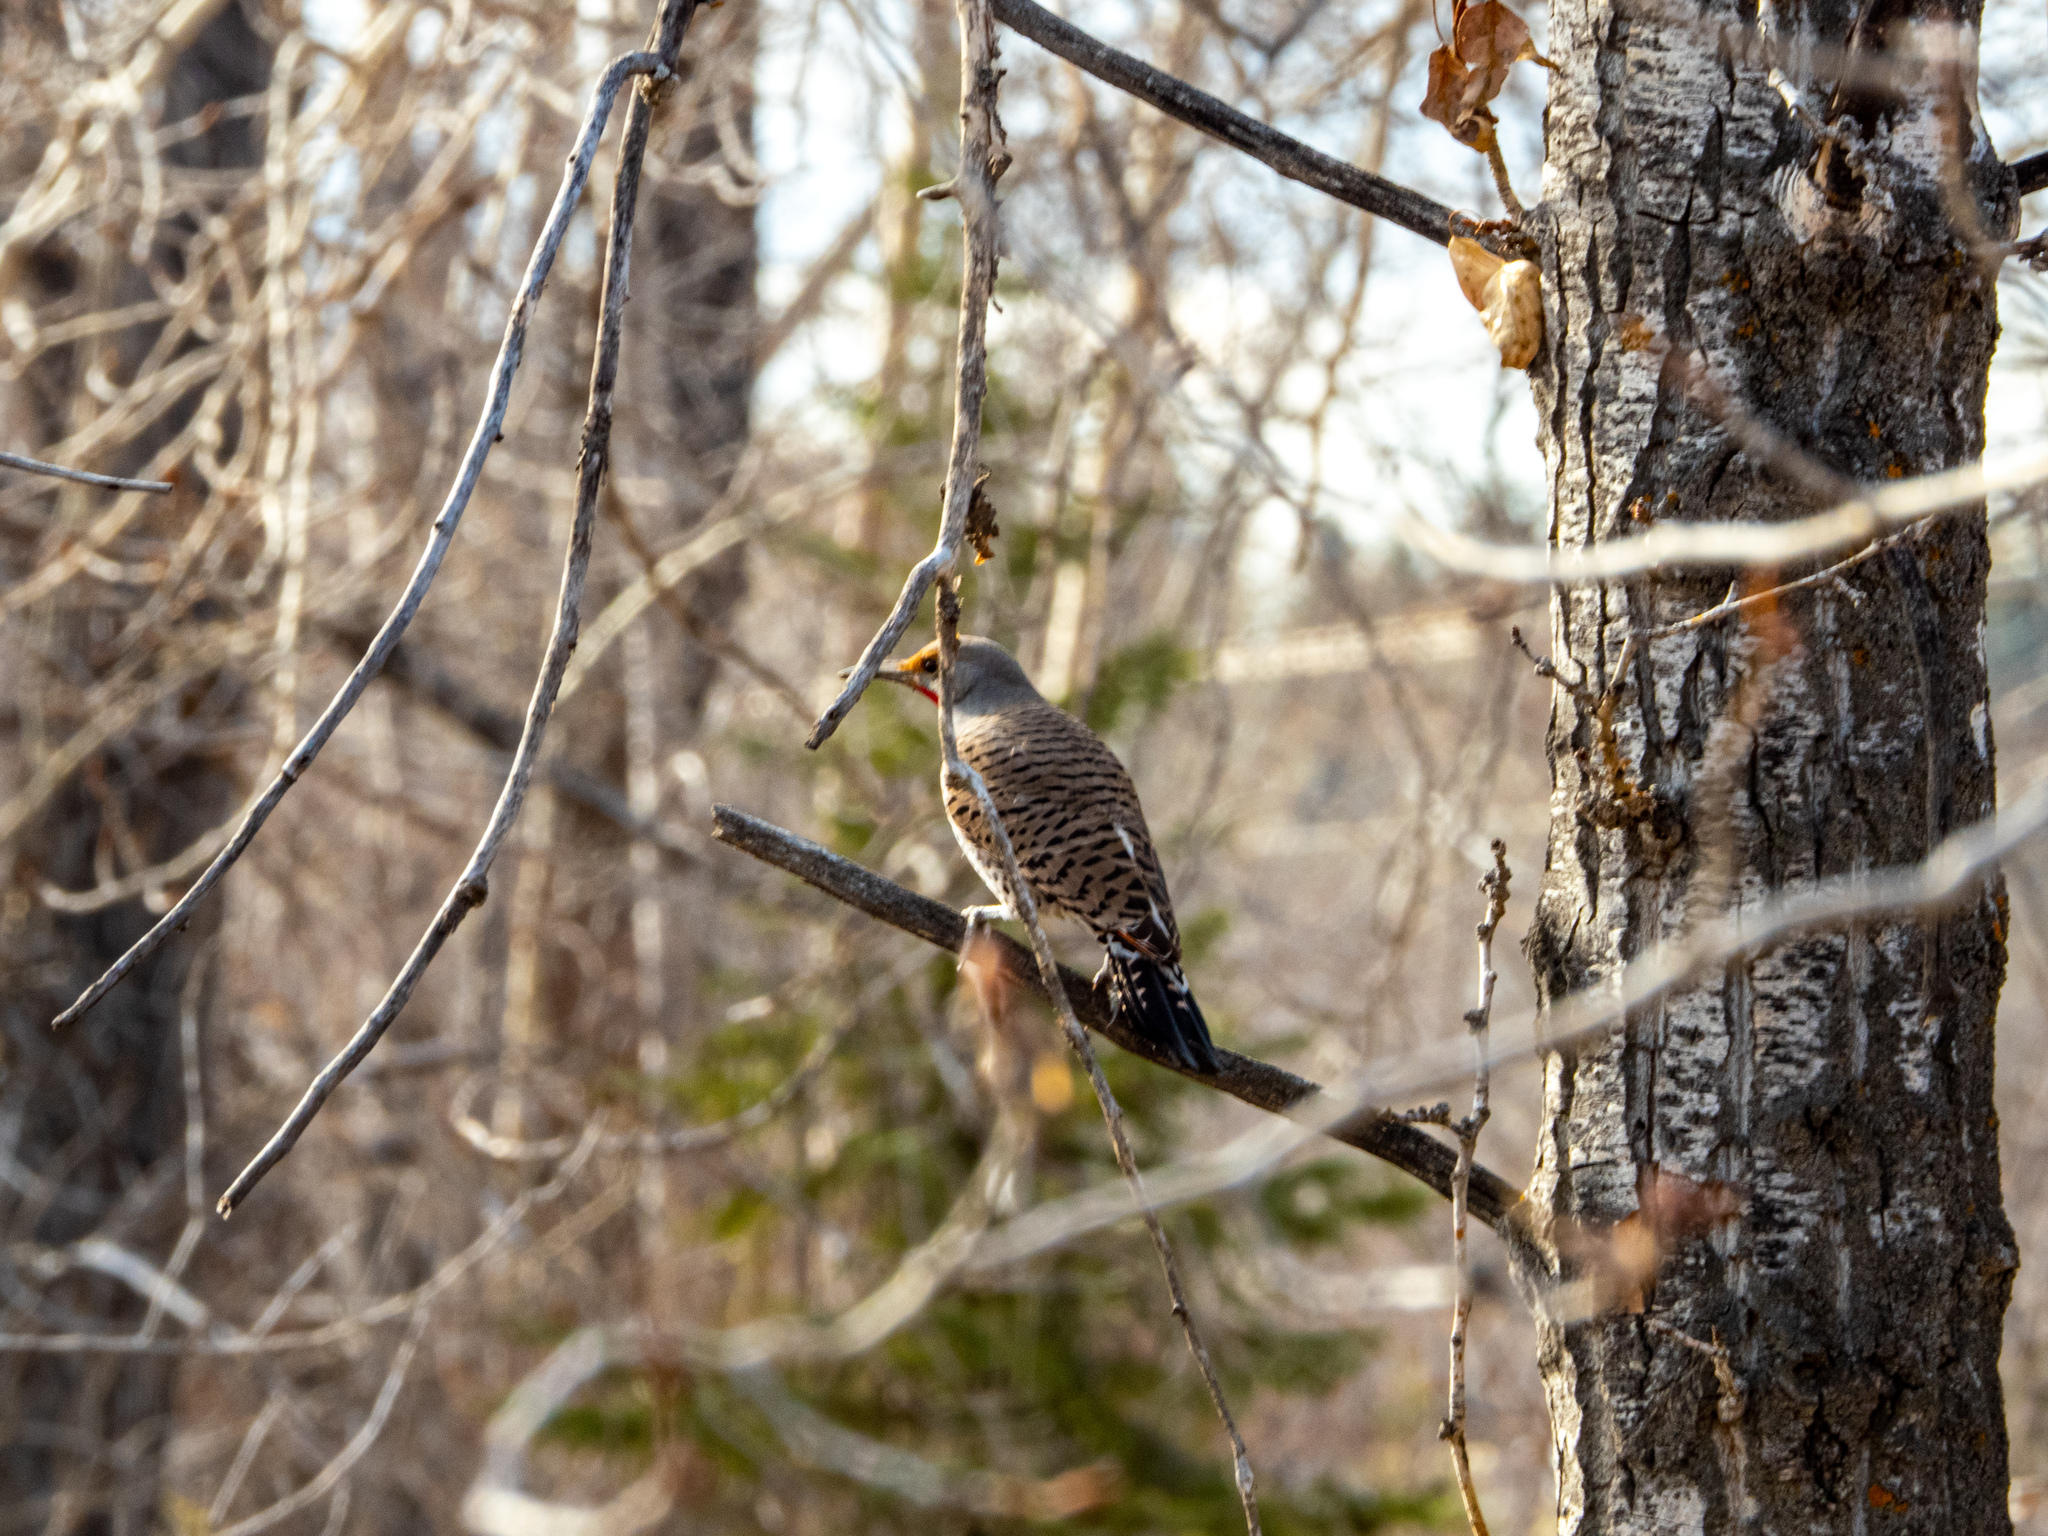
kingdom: Animalia
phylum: Chordata
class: Aves
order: Piciformes
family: Picidae
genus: Colaptes
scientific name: Colaptes auratus
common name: Northern flicker
